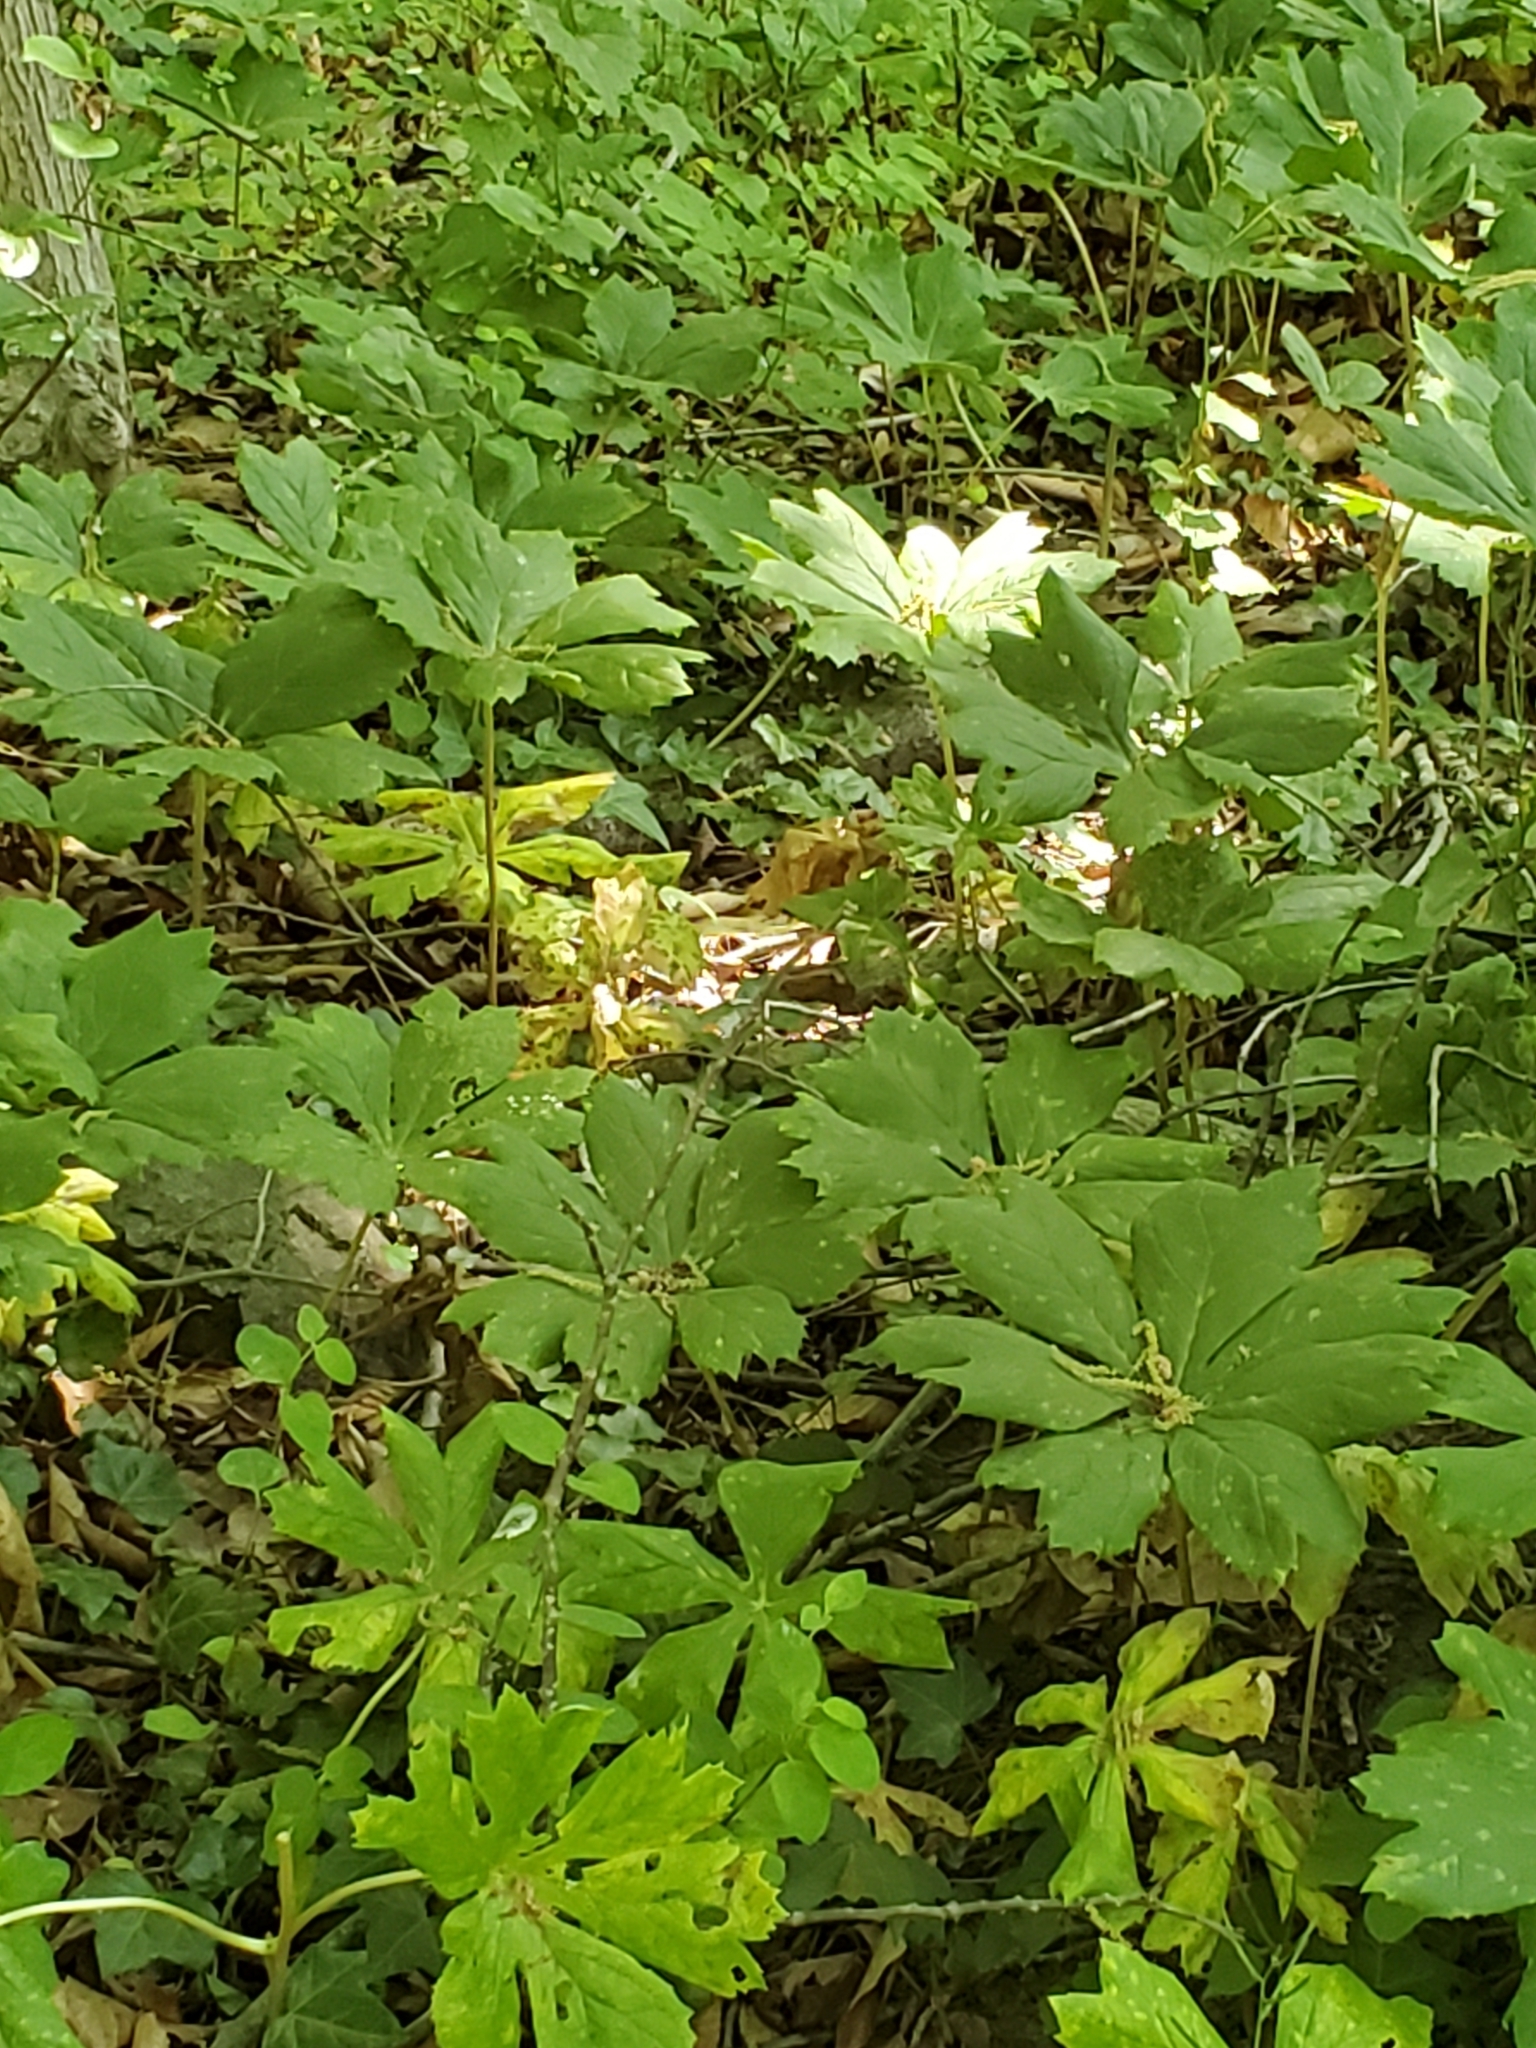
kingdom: Plantae
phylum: Tracheophyta
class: Magnoliopsida
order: Ranunculales
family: Berberidaceae
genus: Podophyllum
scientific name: Podophyllum peltatum
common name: Wild mandrake
